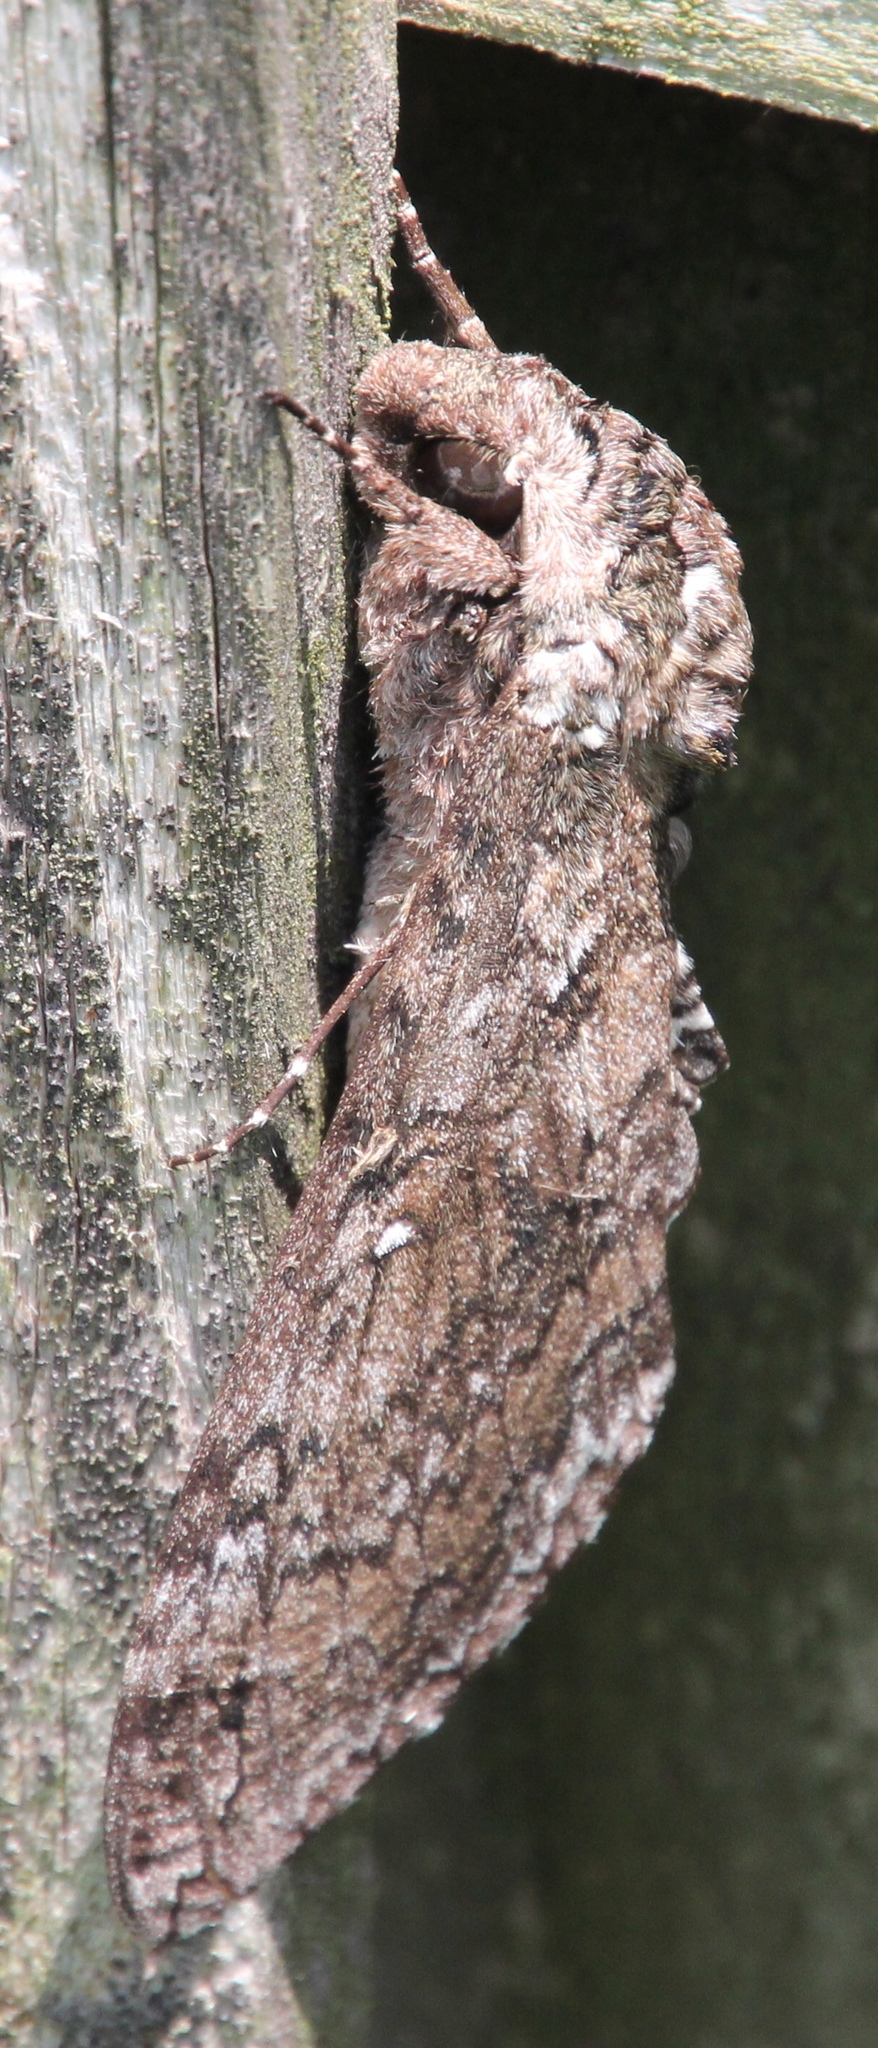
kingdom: Animalia
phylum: Arthropoda
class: Insecta
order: Lepidoptera
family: Sphingidae
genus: Manduca
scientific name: Manduca sexta
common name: Carolina sphinx
